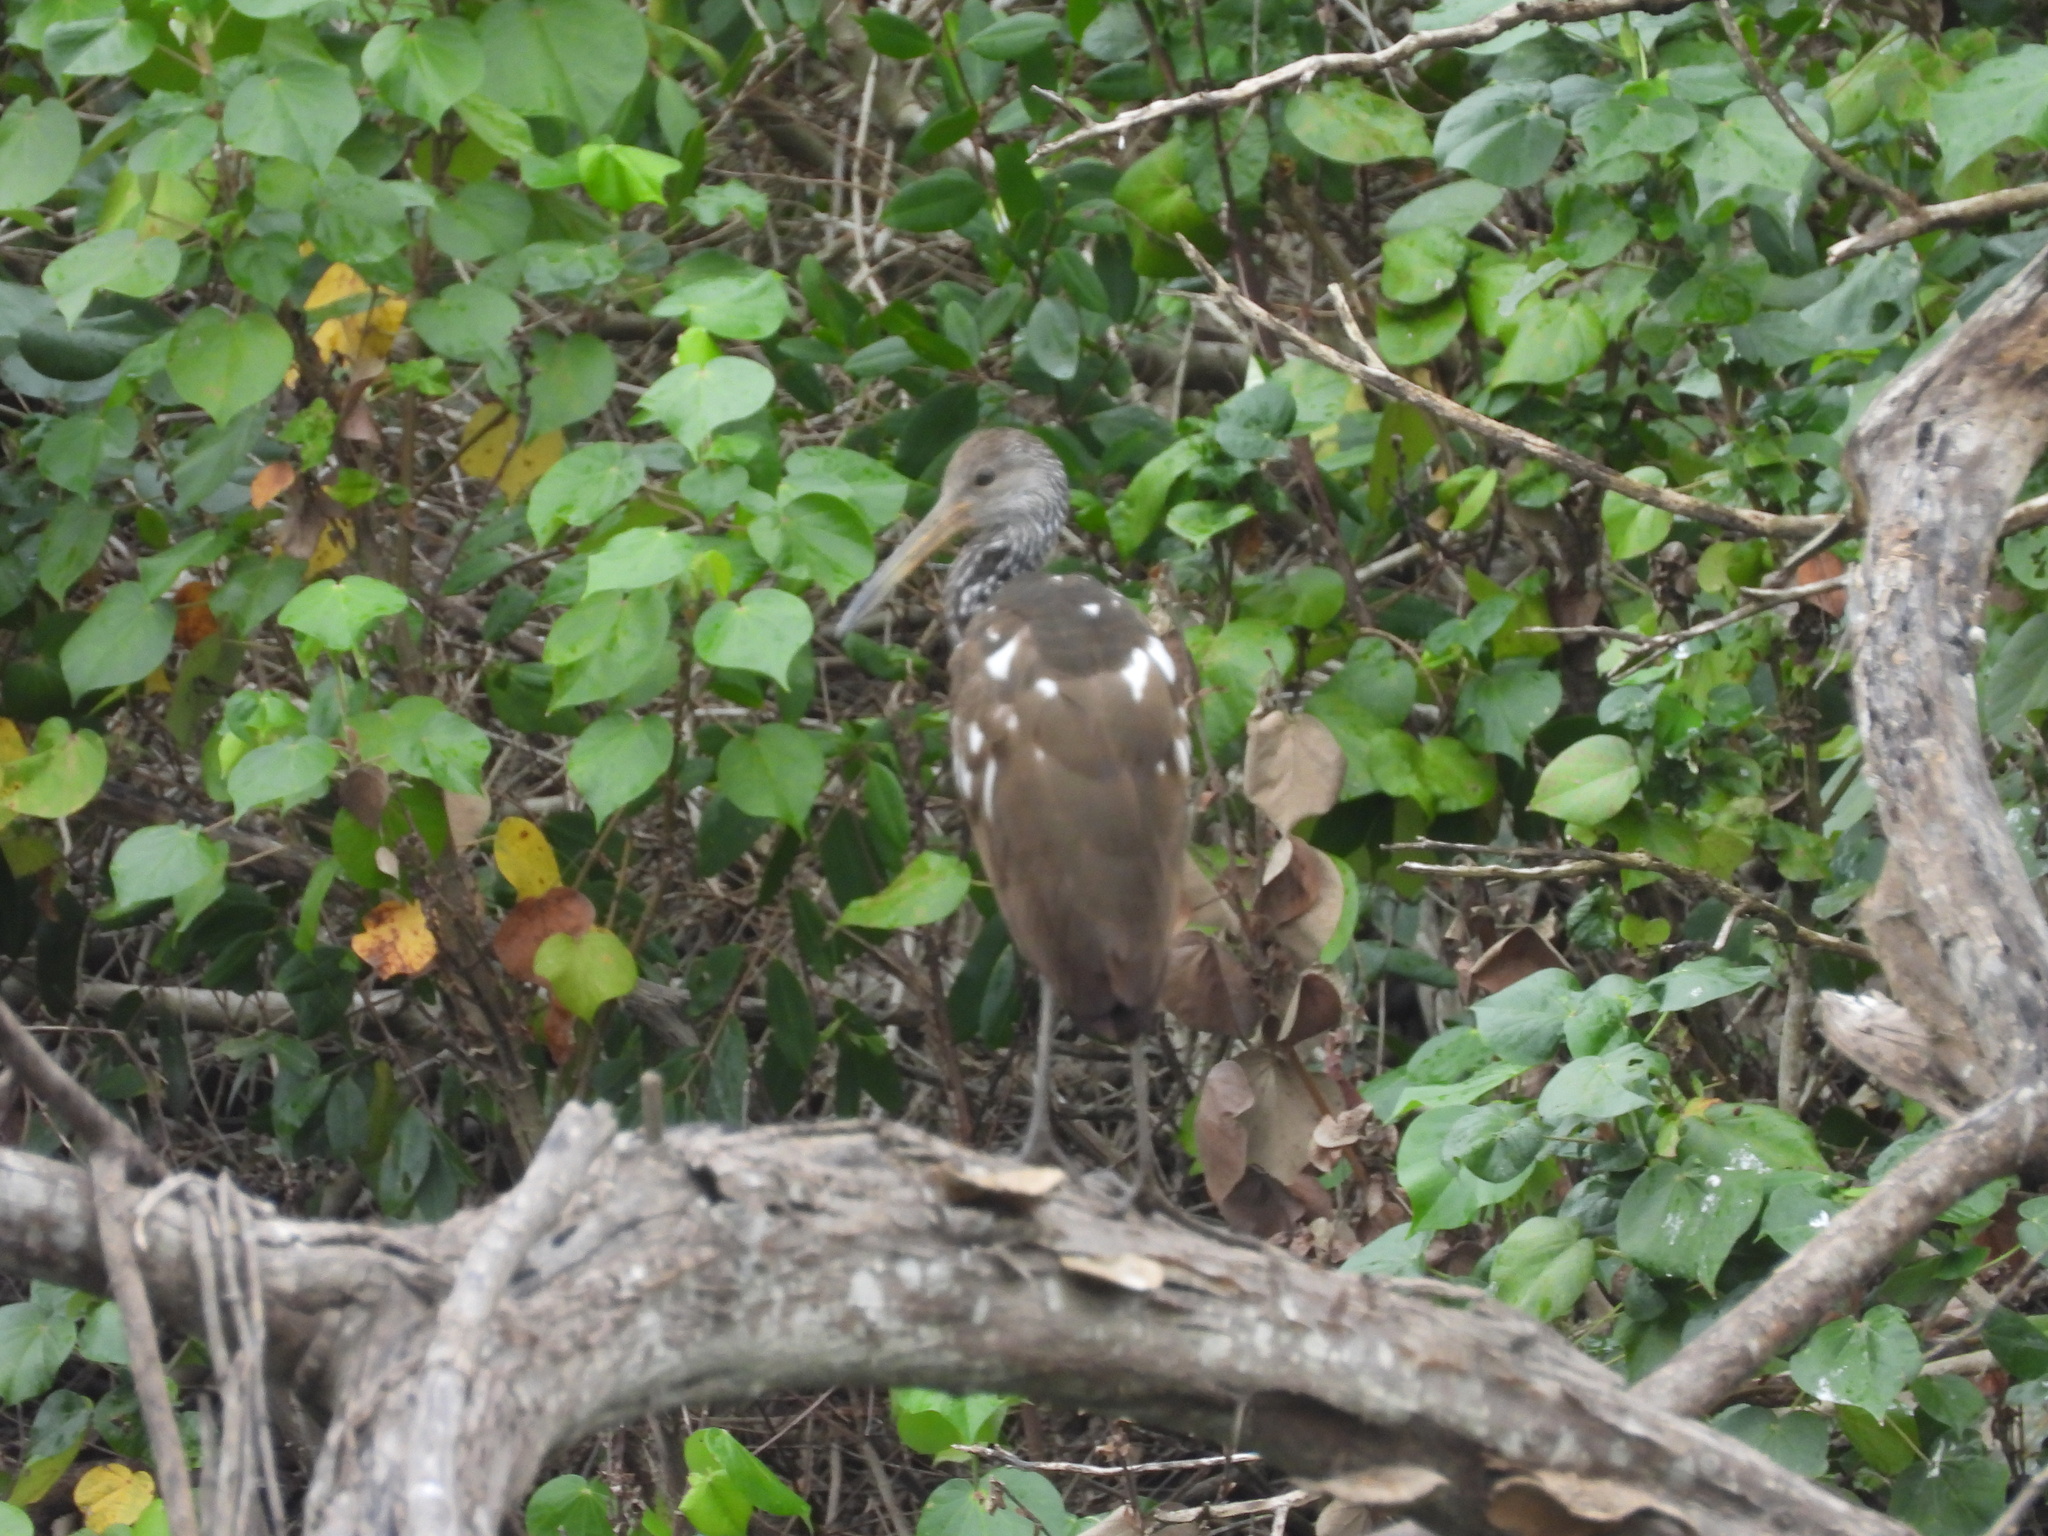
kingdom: Animalia
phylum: Chordata
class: Aves
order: Gruiformes
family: Aramidae
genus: Aramus
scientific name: Aramus guarauna
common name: Limpkin
